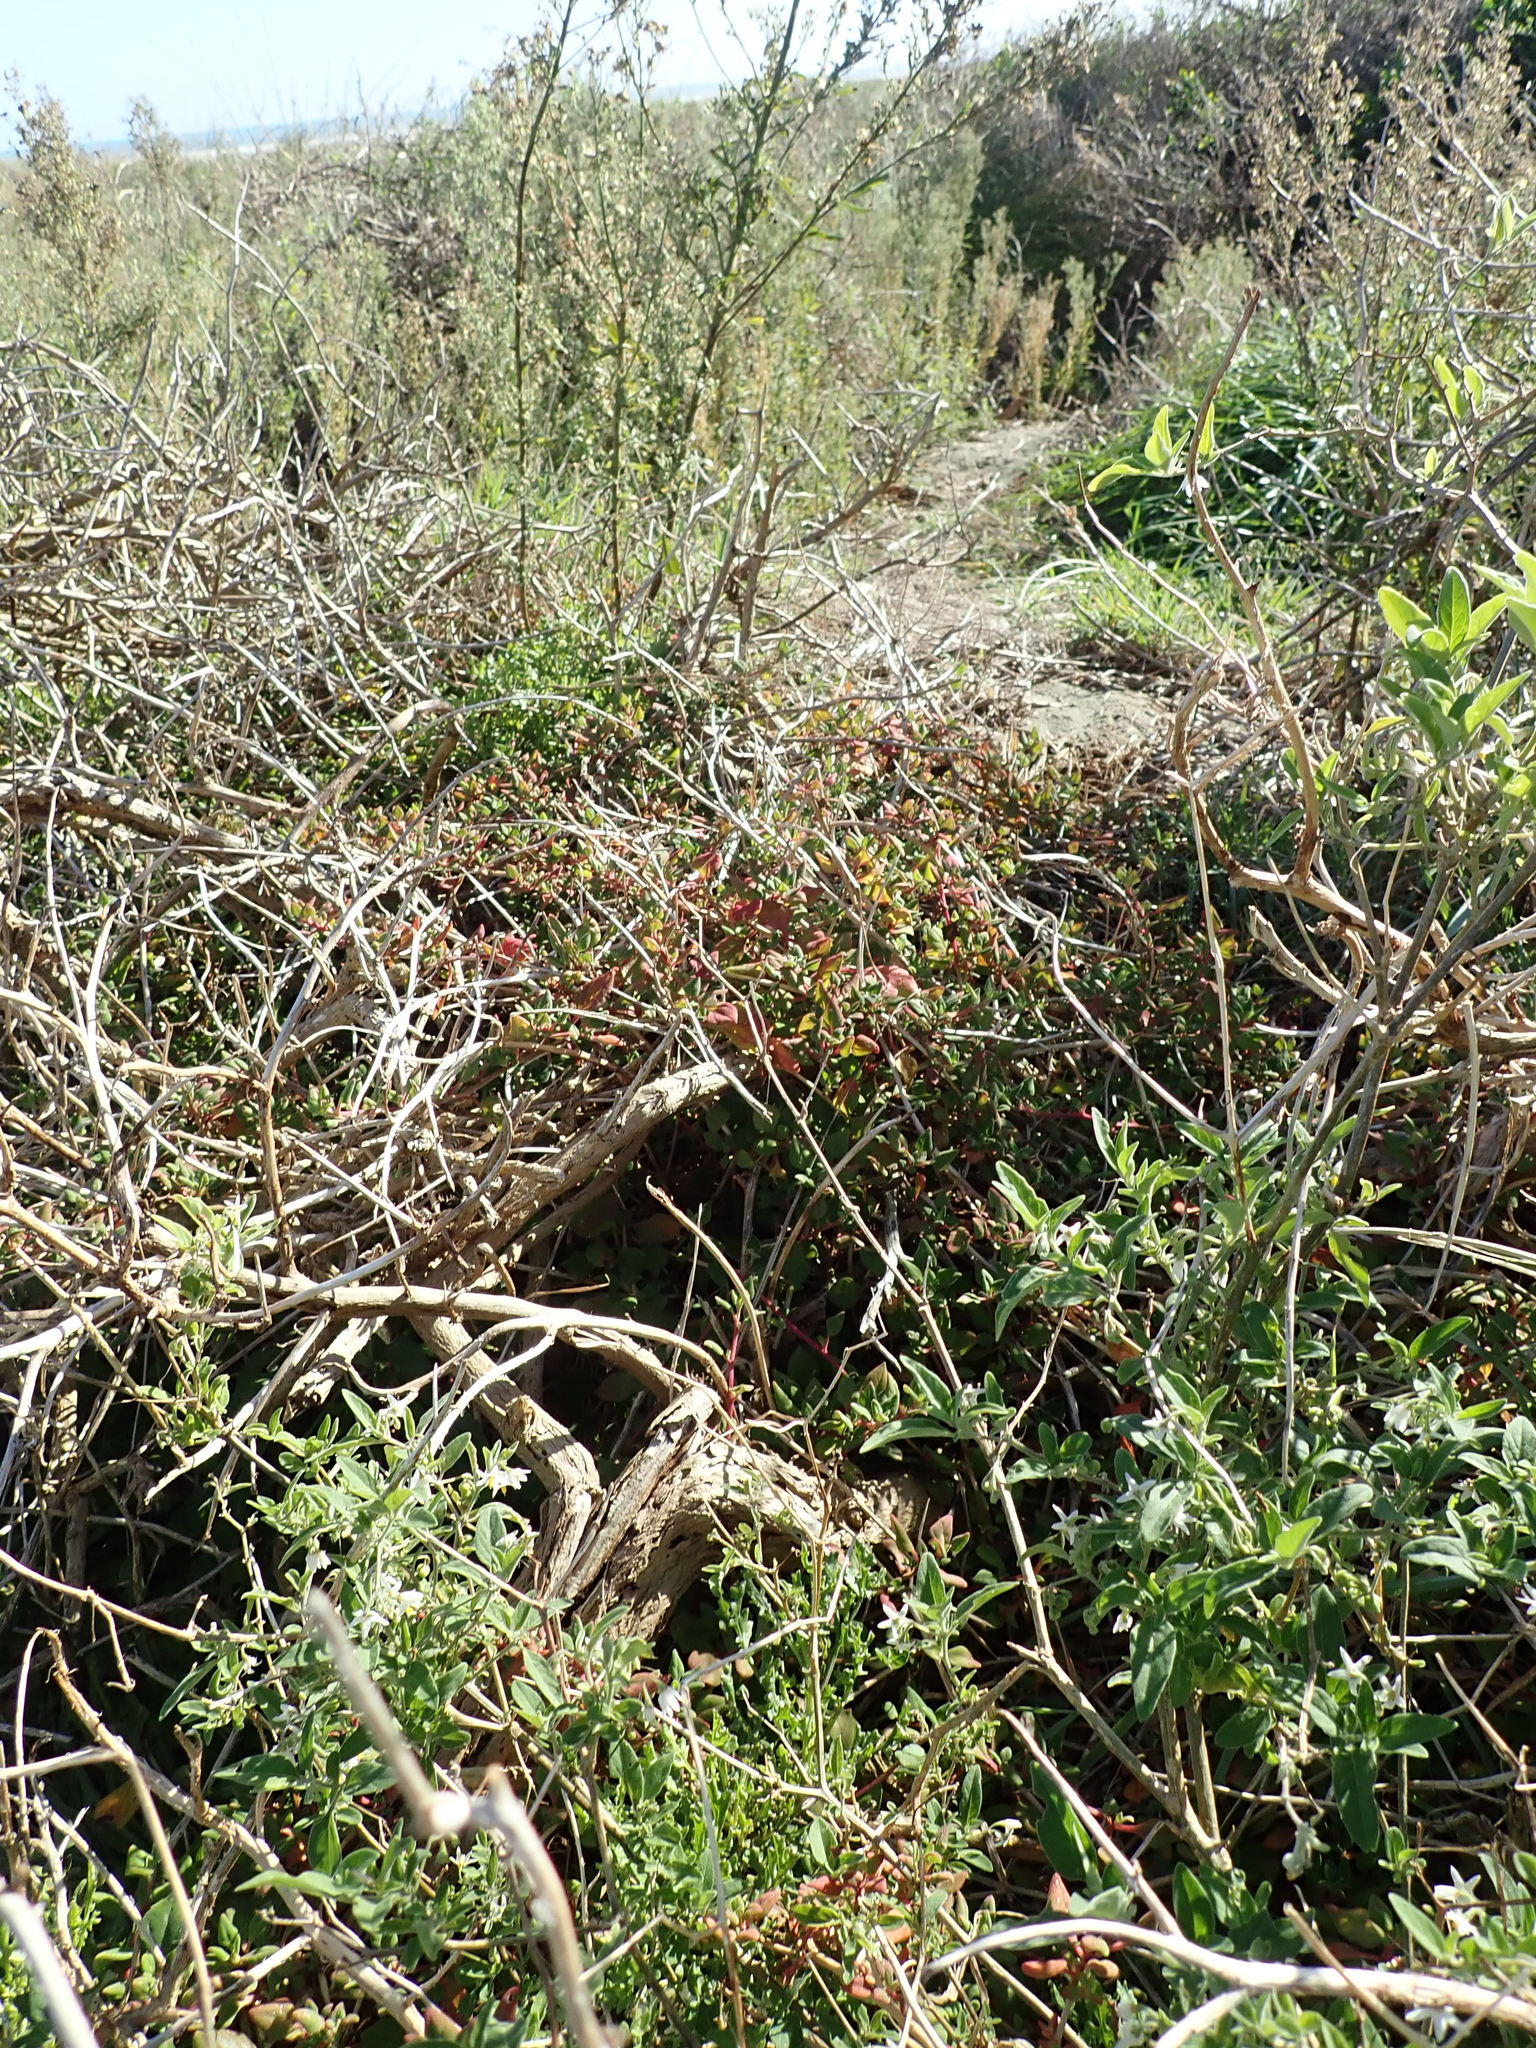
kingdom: Plantae
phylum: Tracheophyta
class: Magnoliopsida
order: Caryophyllales
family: Aizoaceae
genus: Tetragonia
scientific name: Tetragonia implexicoma
